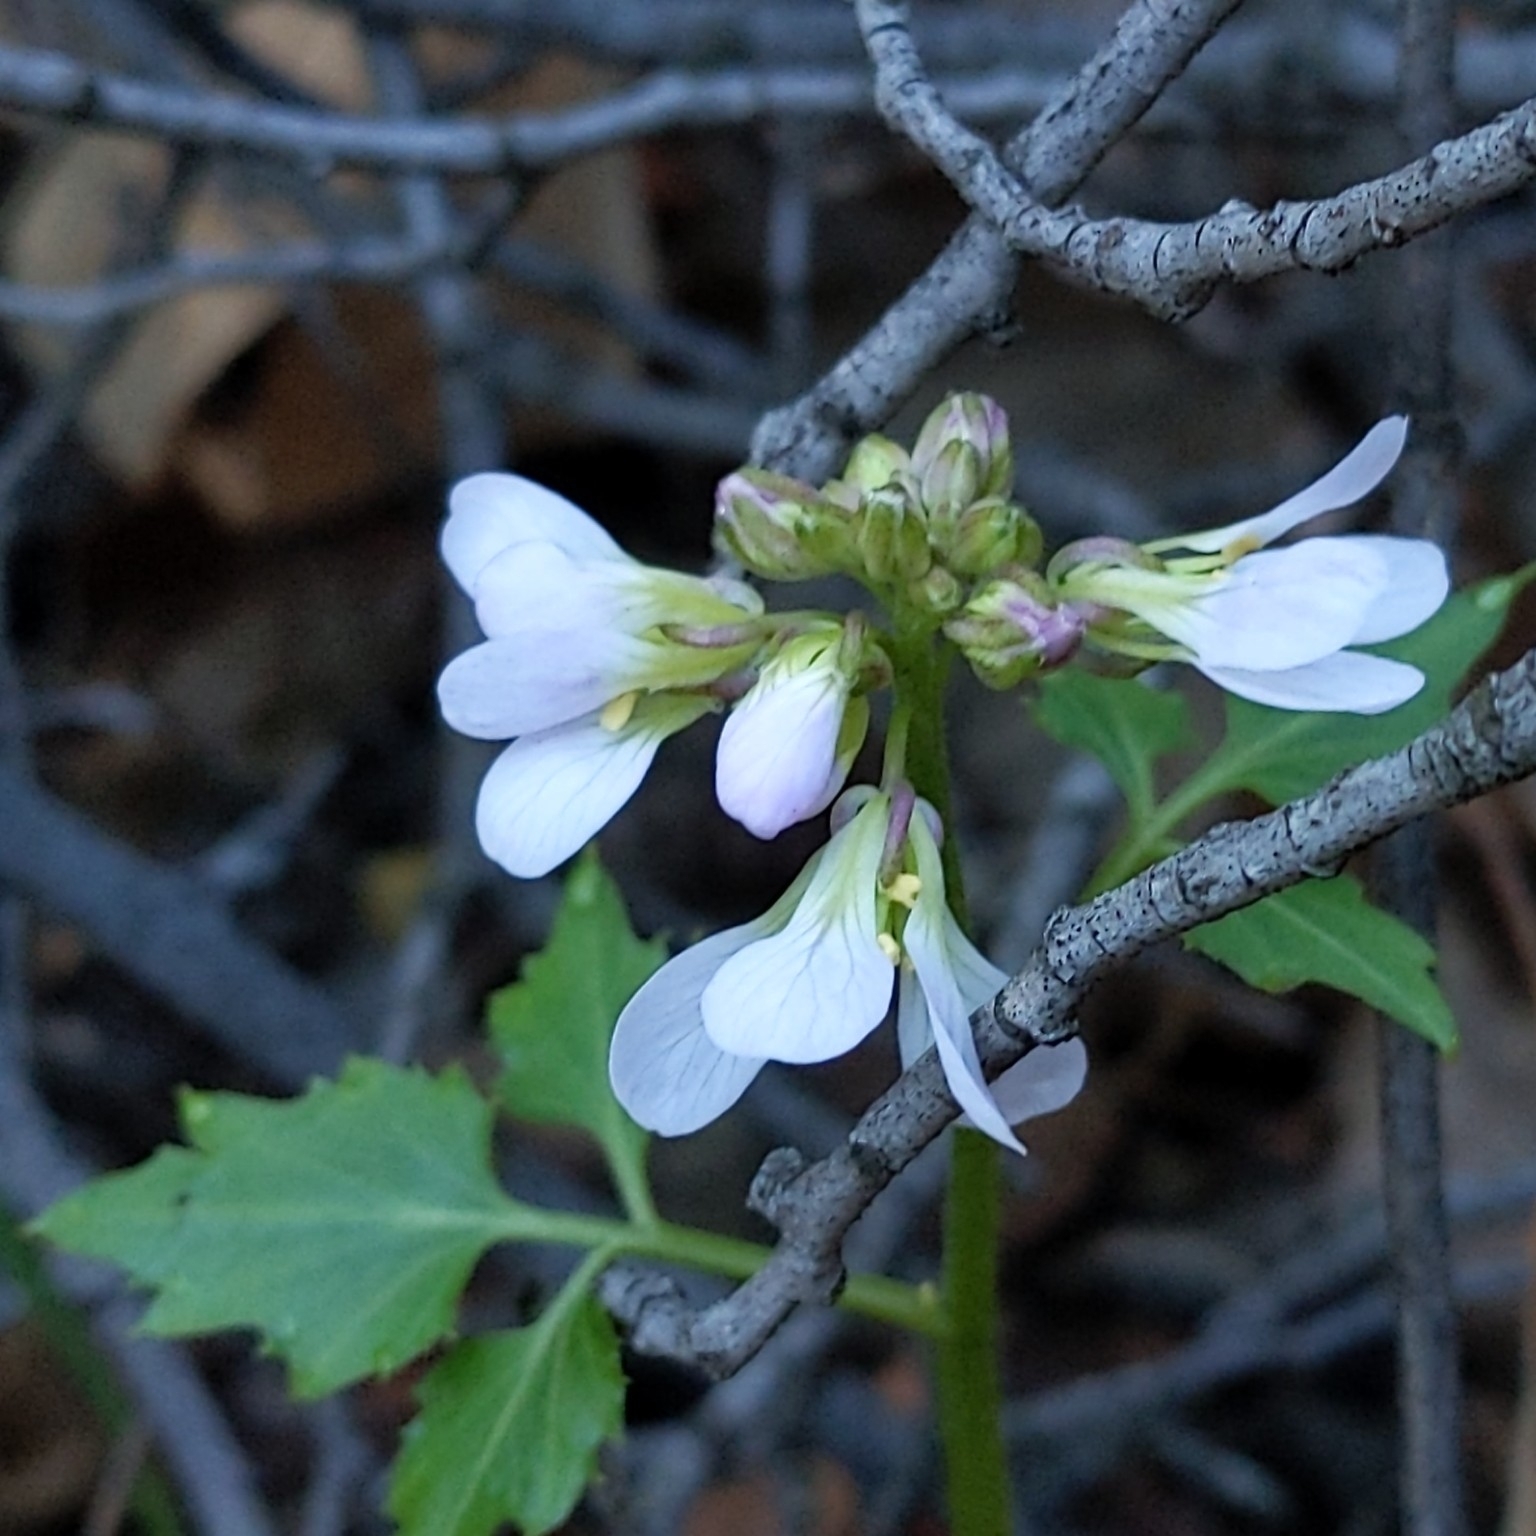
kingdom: Plantae
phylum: Tracheophyta
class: Magnoliopsida
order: Brassicales
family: Brassicaceae
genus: Cardamine
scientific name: Cardamine californica
